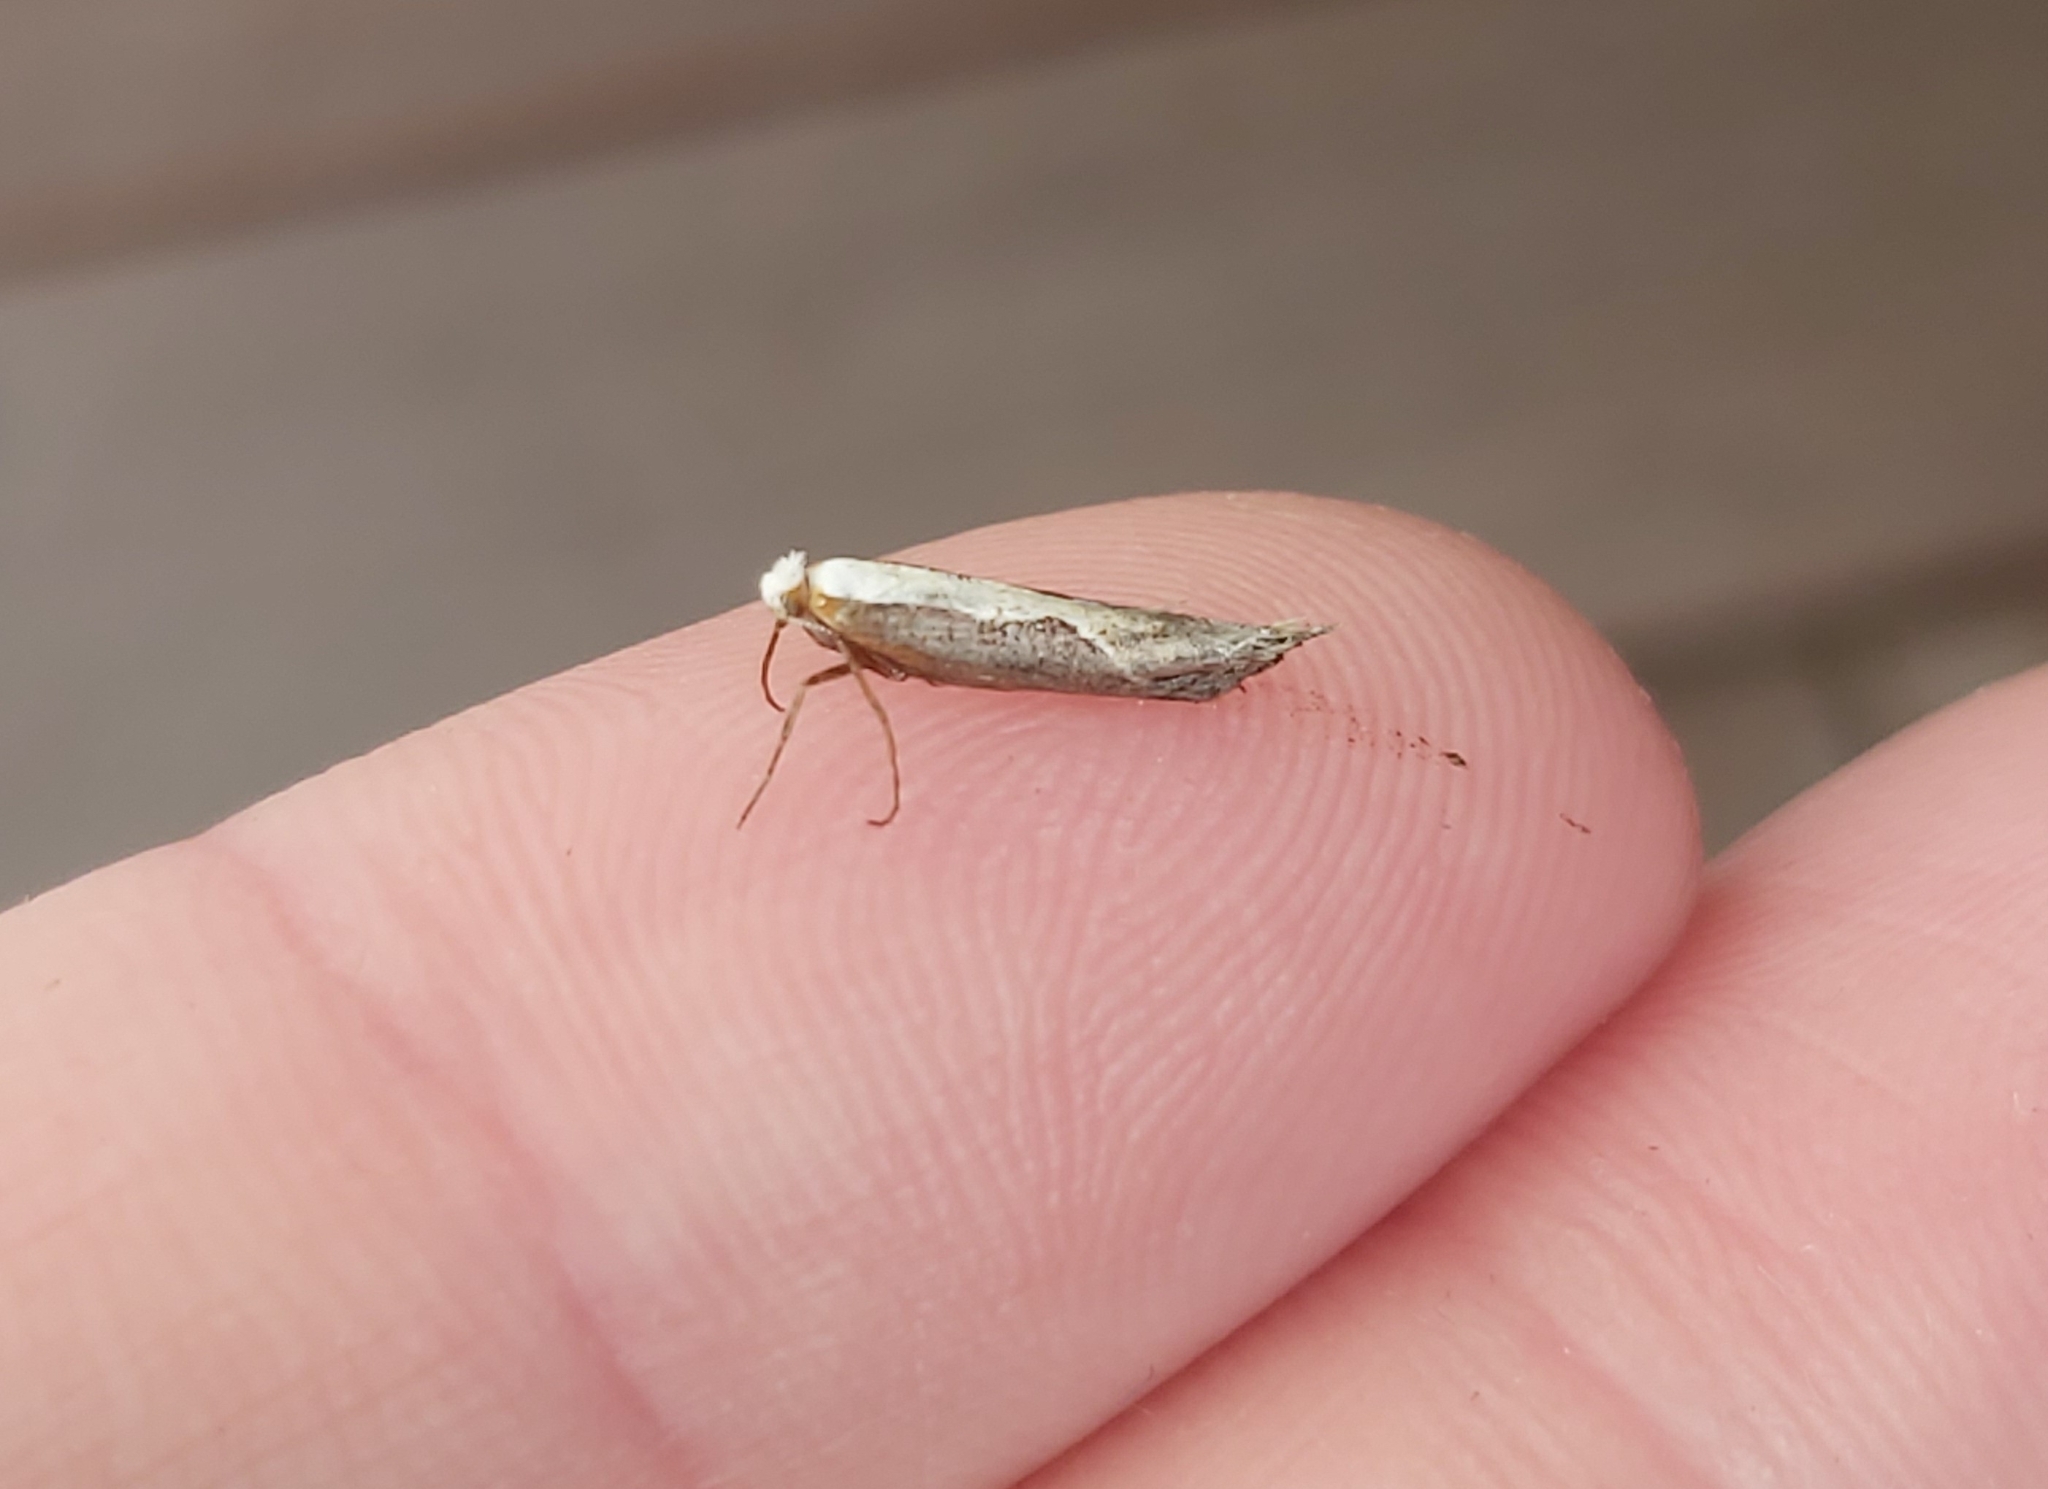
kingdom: Animalia
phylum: Arthropoda
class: Insecta
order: Lepidoptera
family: Ypsolophidae
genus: Ypsolopha
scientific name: Ypsolopha dentella
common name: Honeysuckle moth
